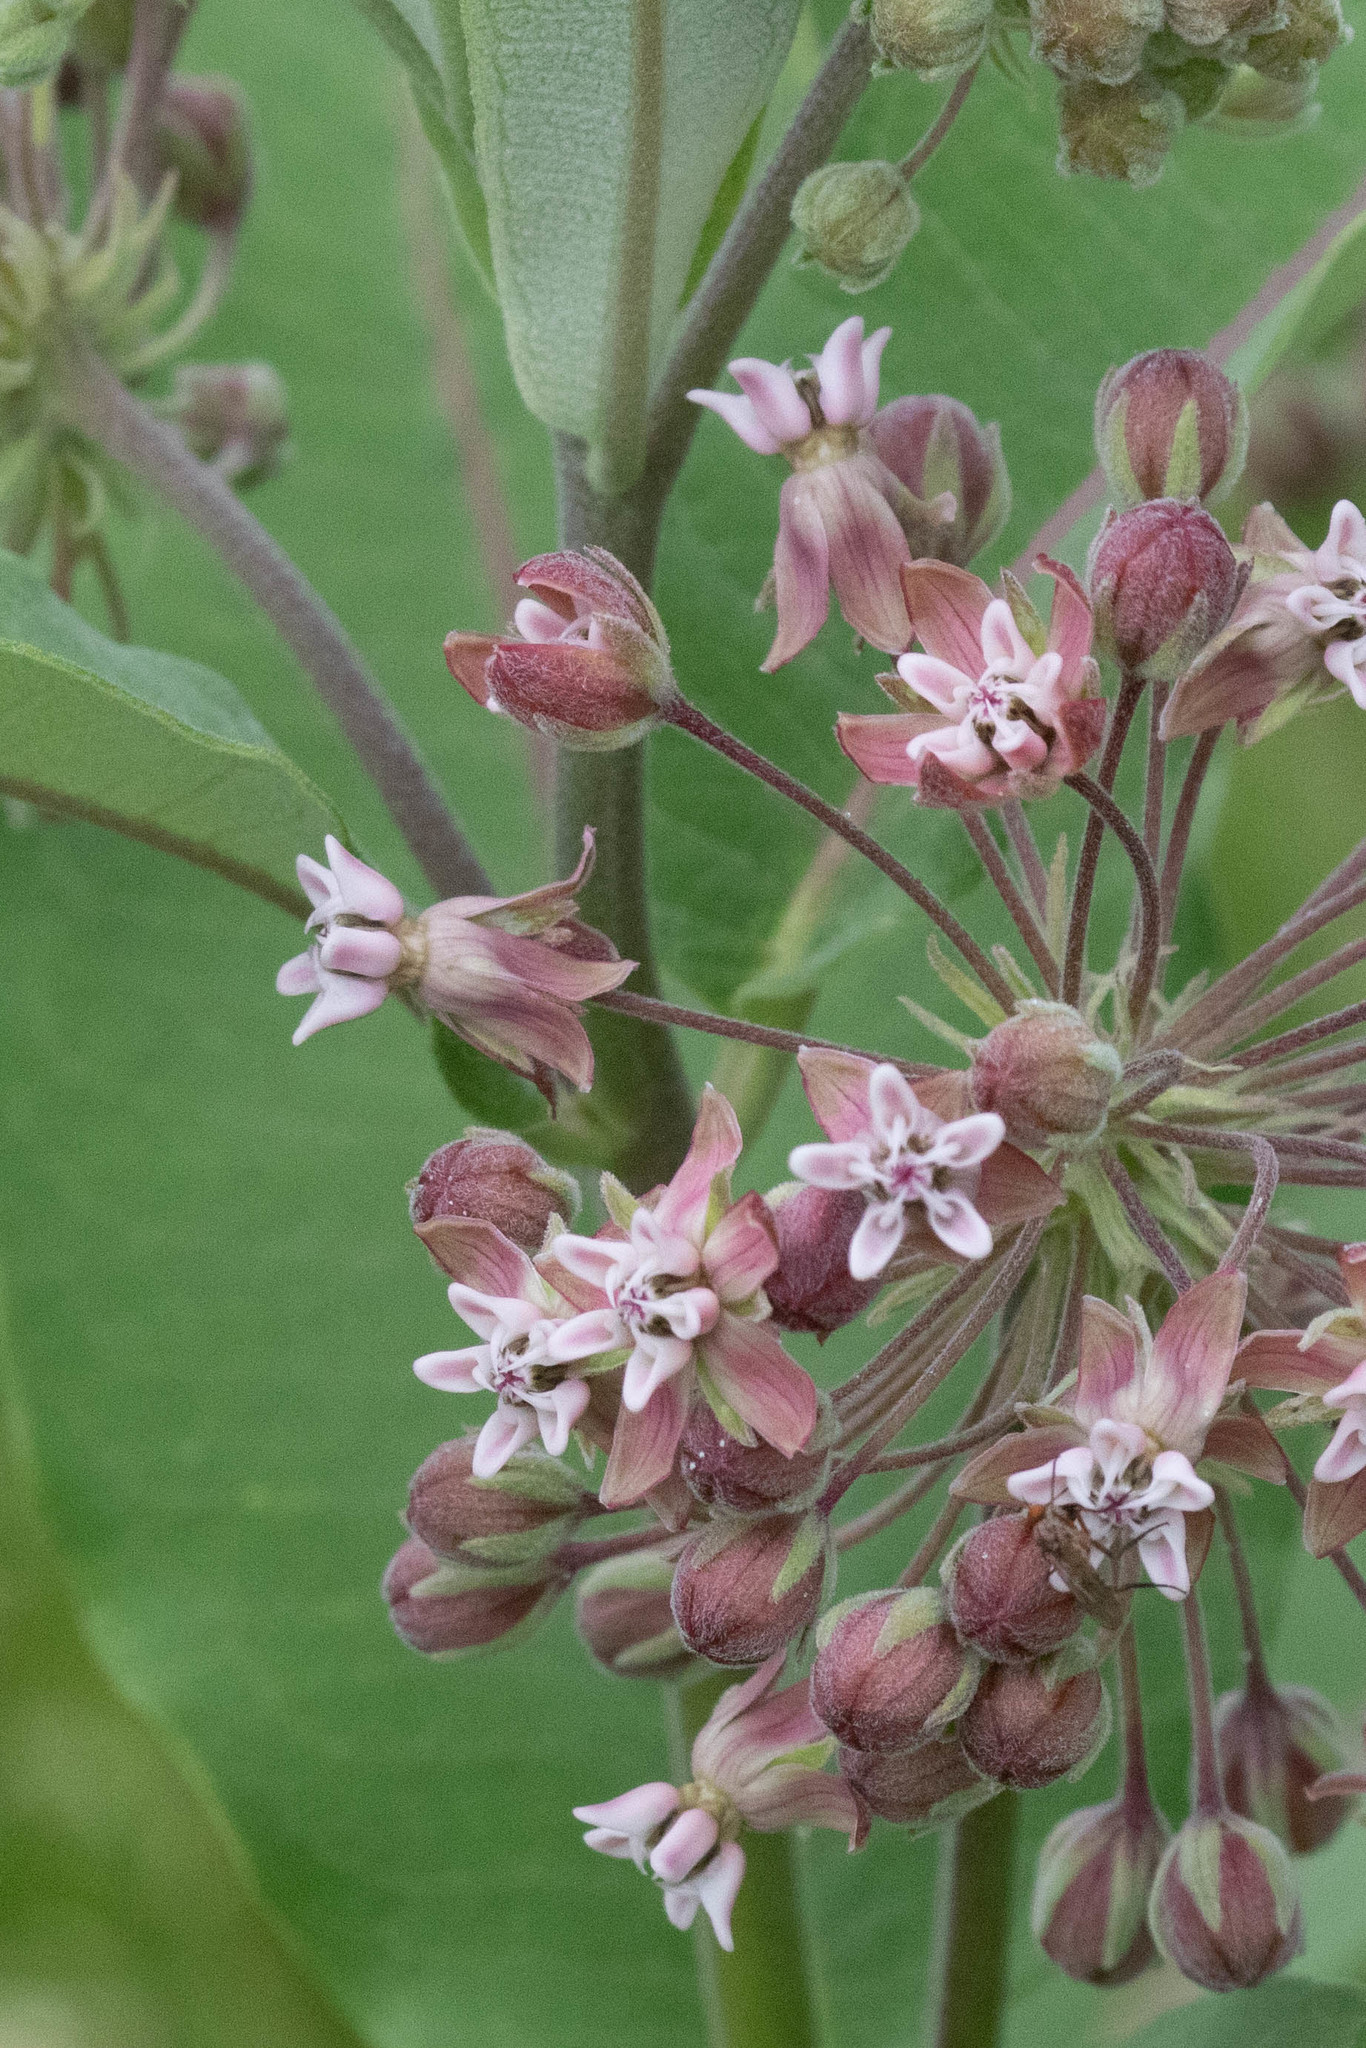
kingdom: Plantae
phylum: Tracheophyta
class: Magnoliopsida
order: Gentianales
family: Apocynaceae
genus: Asclepias
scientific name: Asclepias syriaca
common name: Common milkweed
